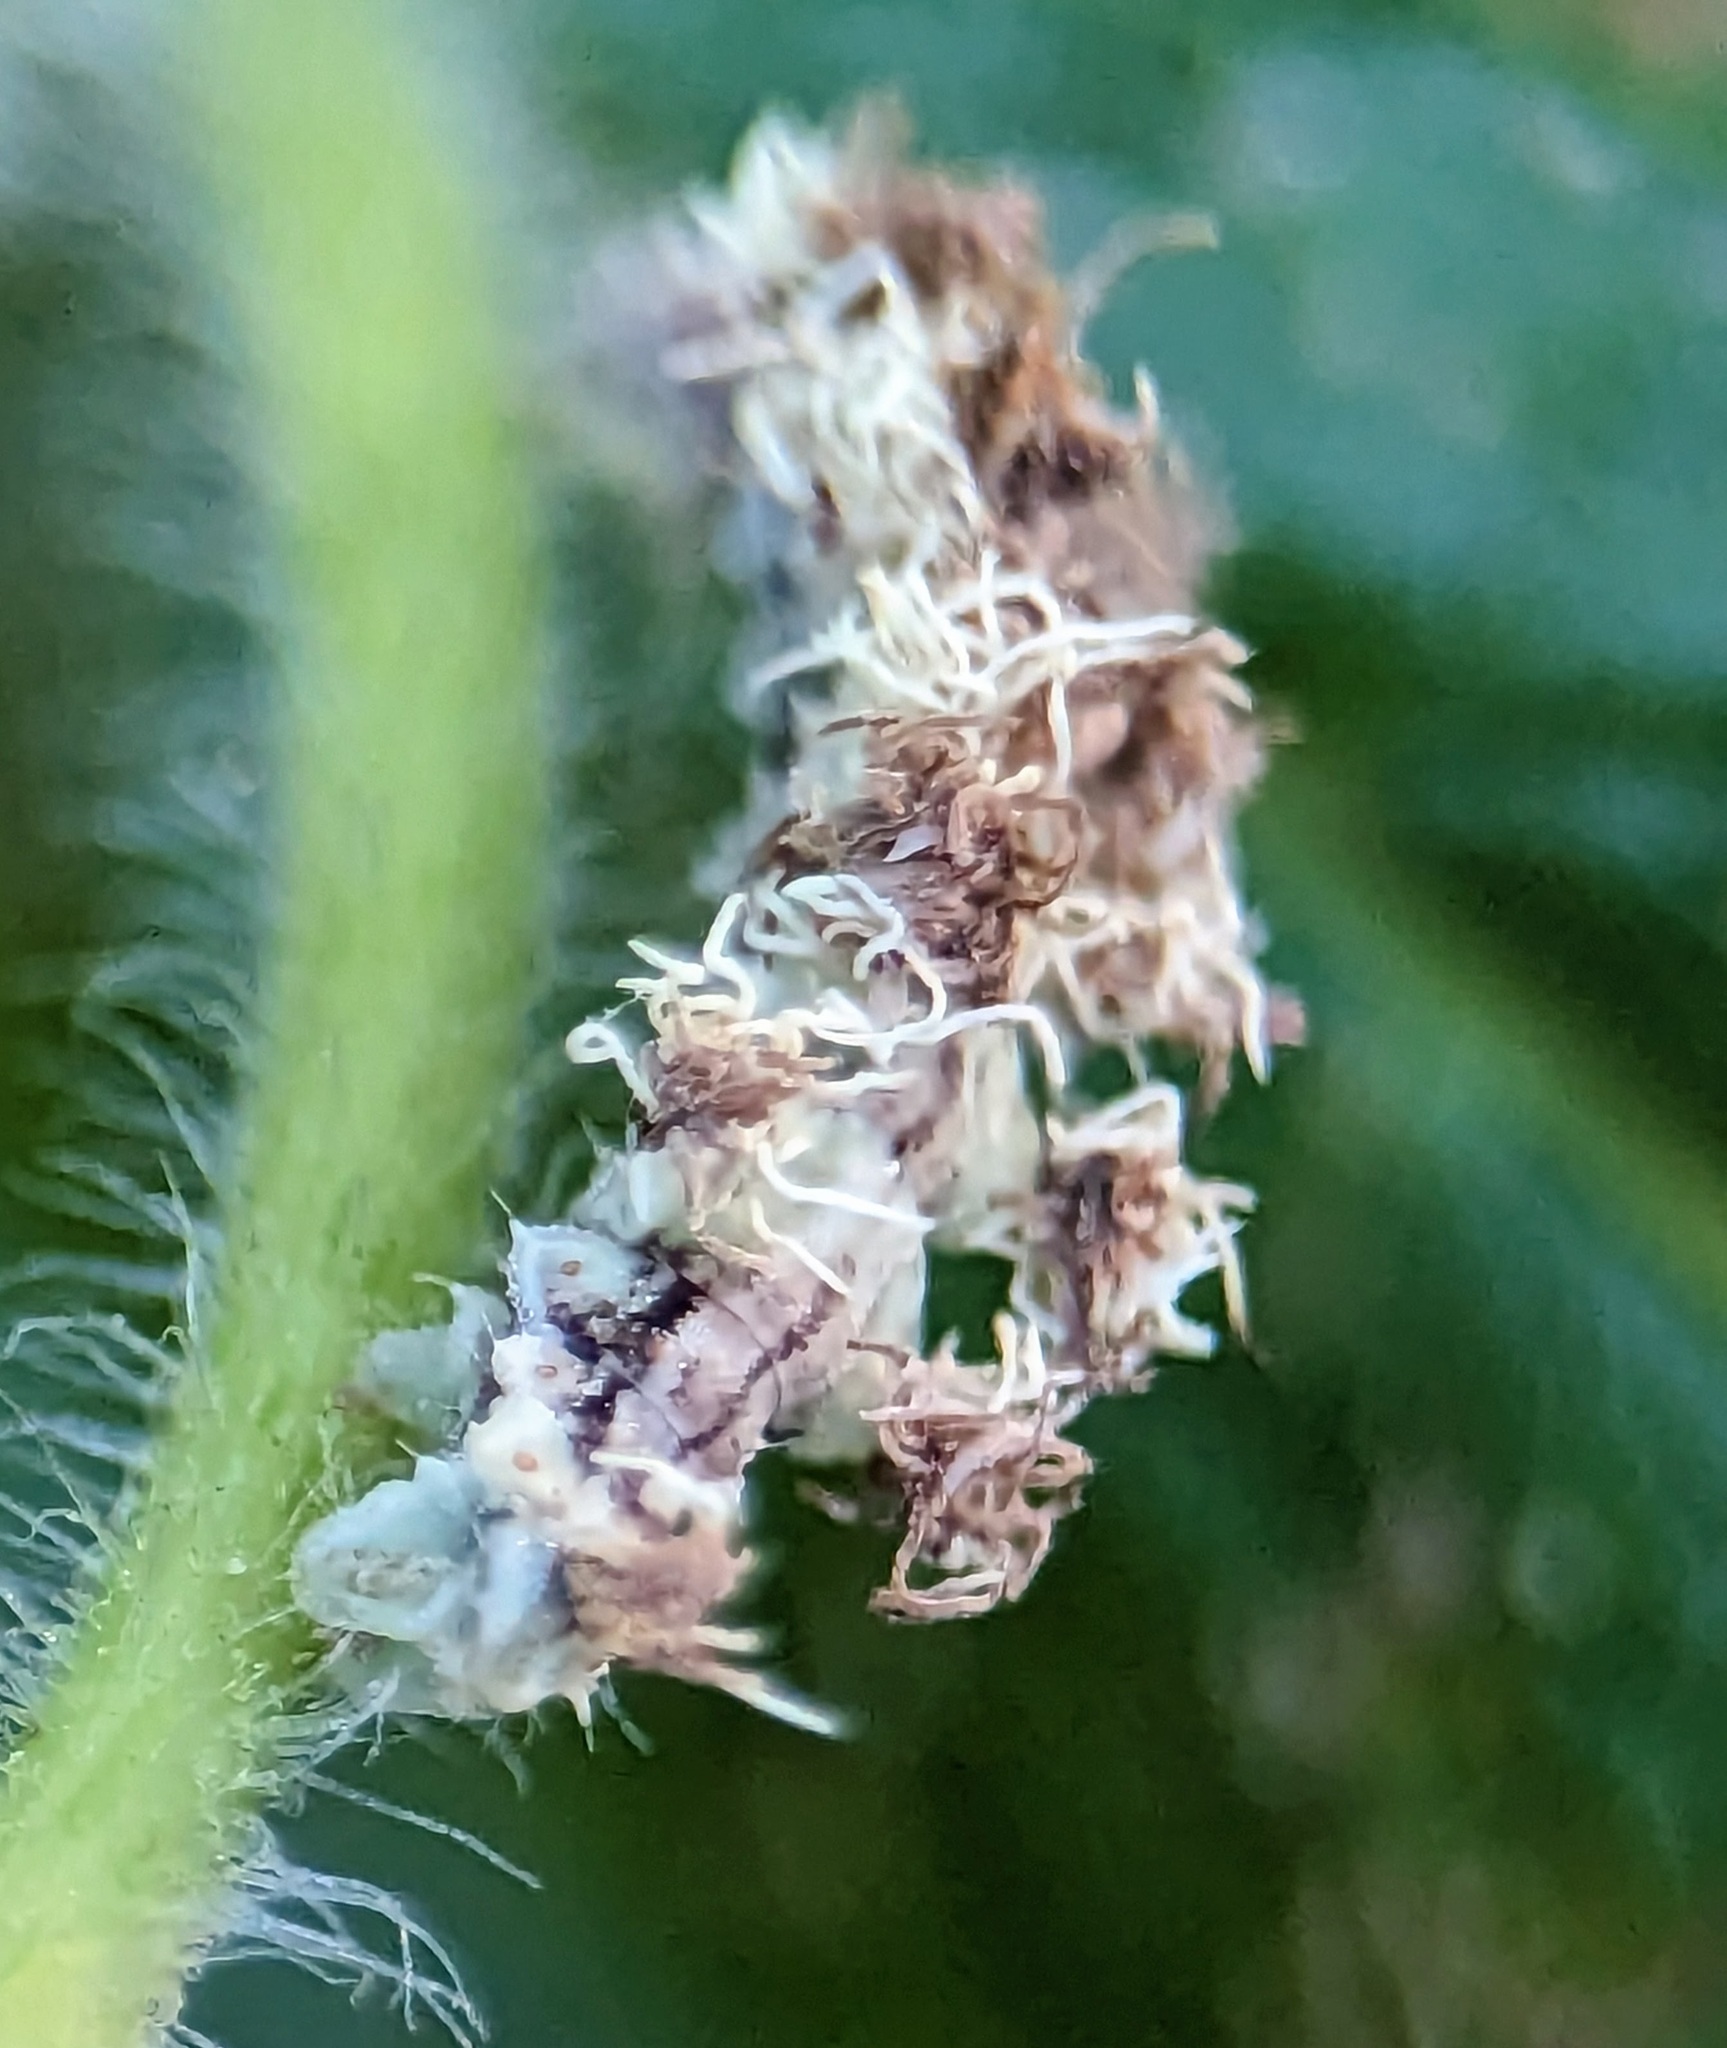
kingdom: Animalia
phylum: Arthropoda
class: Insecta
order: Lepidoptera
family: Geometridae
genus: Synchlora
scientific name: Synchlora aerata
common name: Wavy-lined emerald
